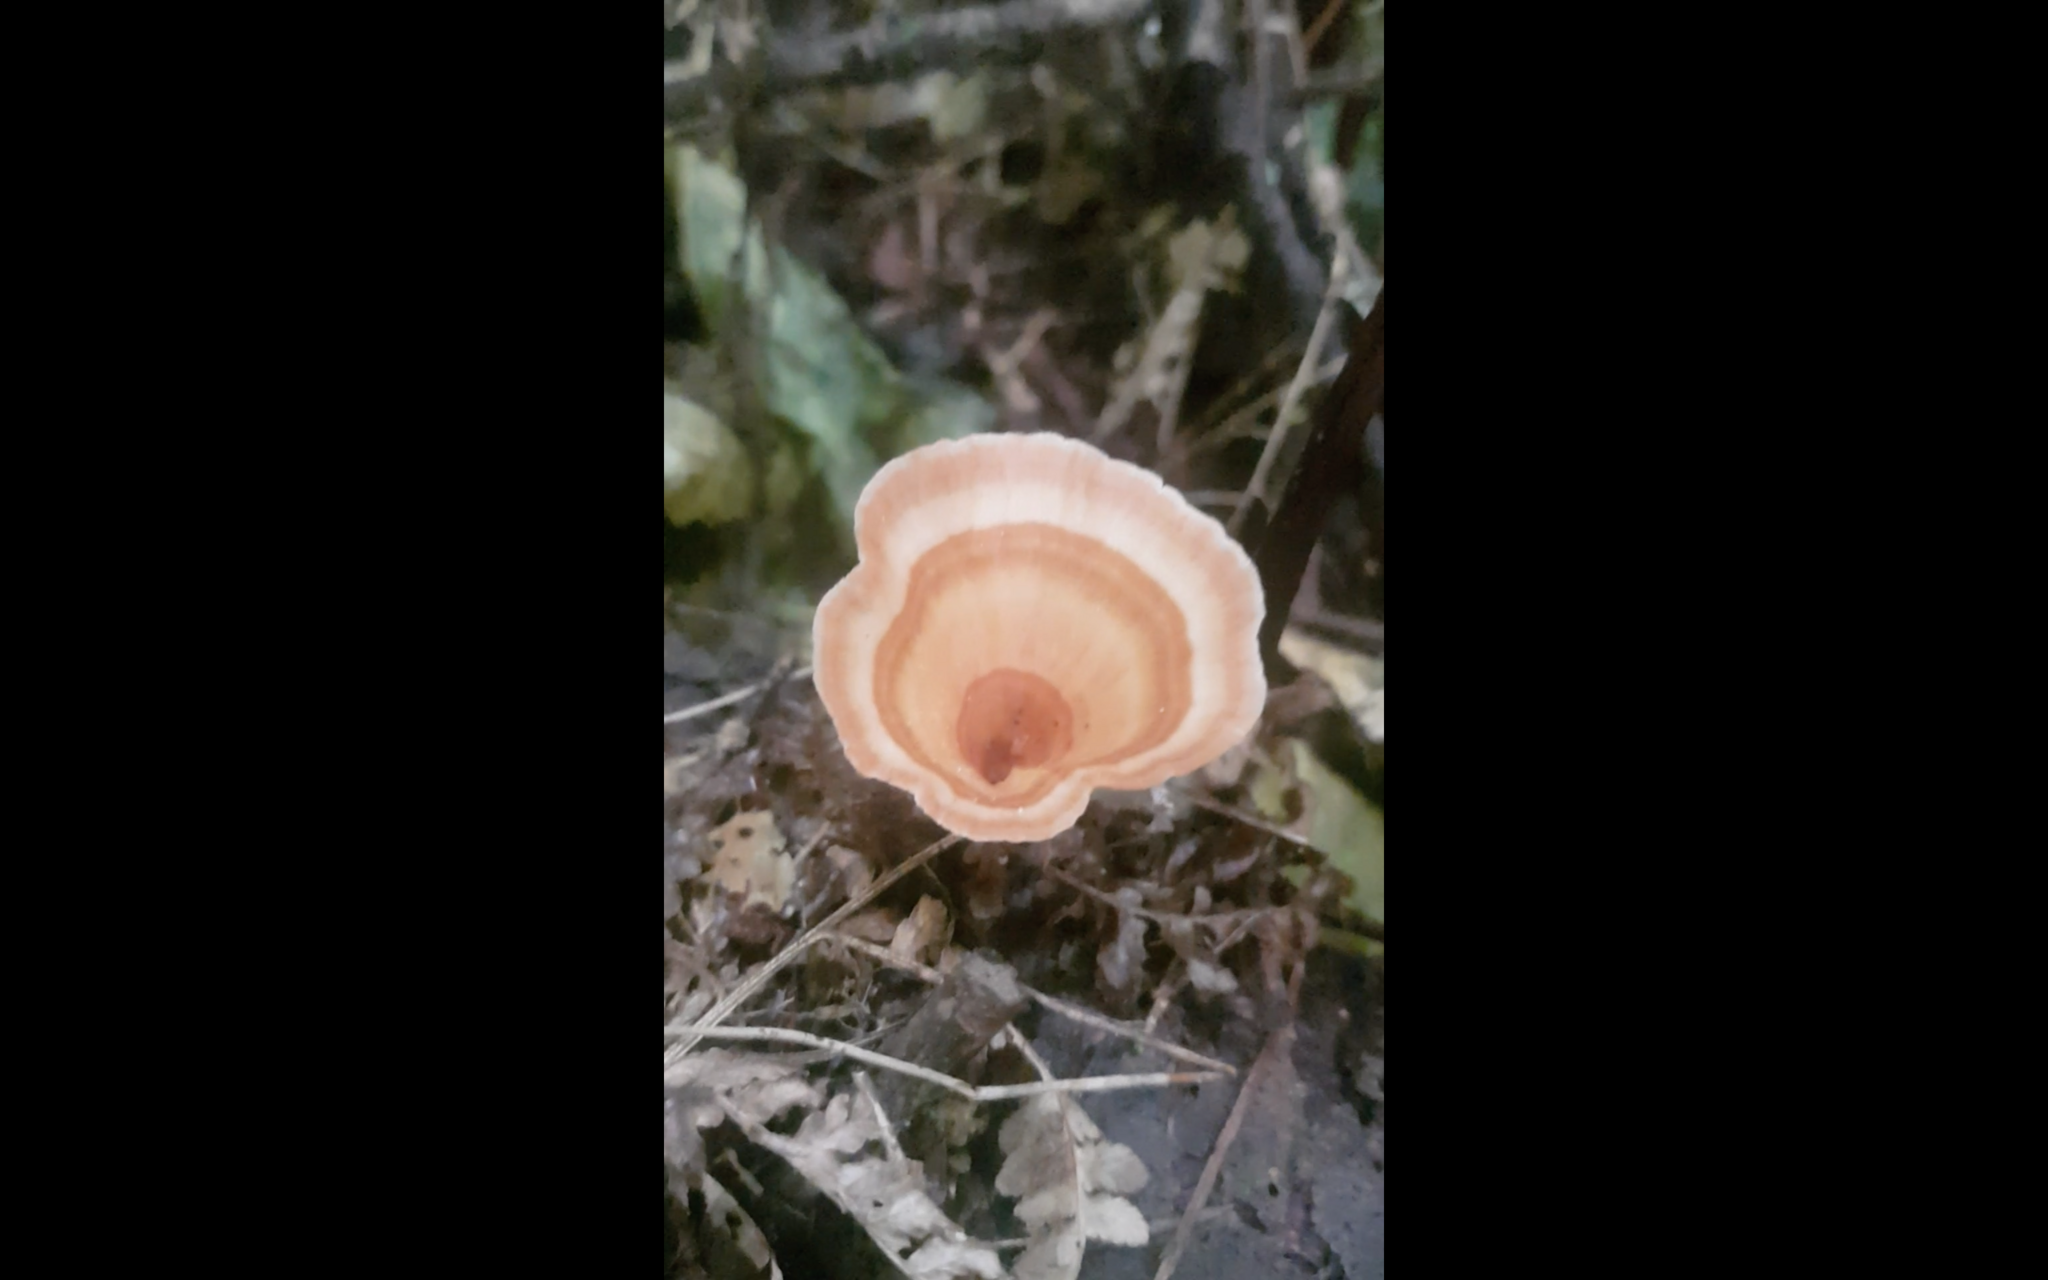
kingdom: Fungi
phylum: Basidiomycota
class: Agaricomycetes
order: Polyporales
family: Podoscyphaceae
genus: Podoscypha
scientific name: Podoscypha petalodes
